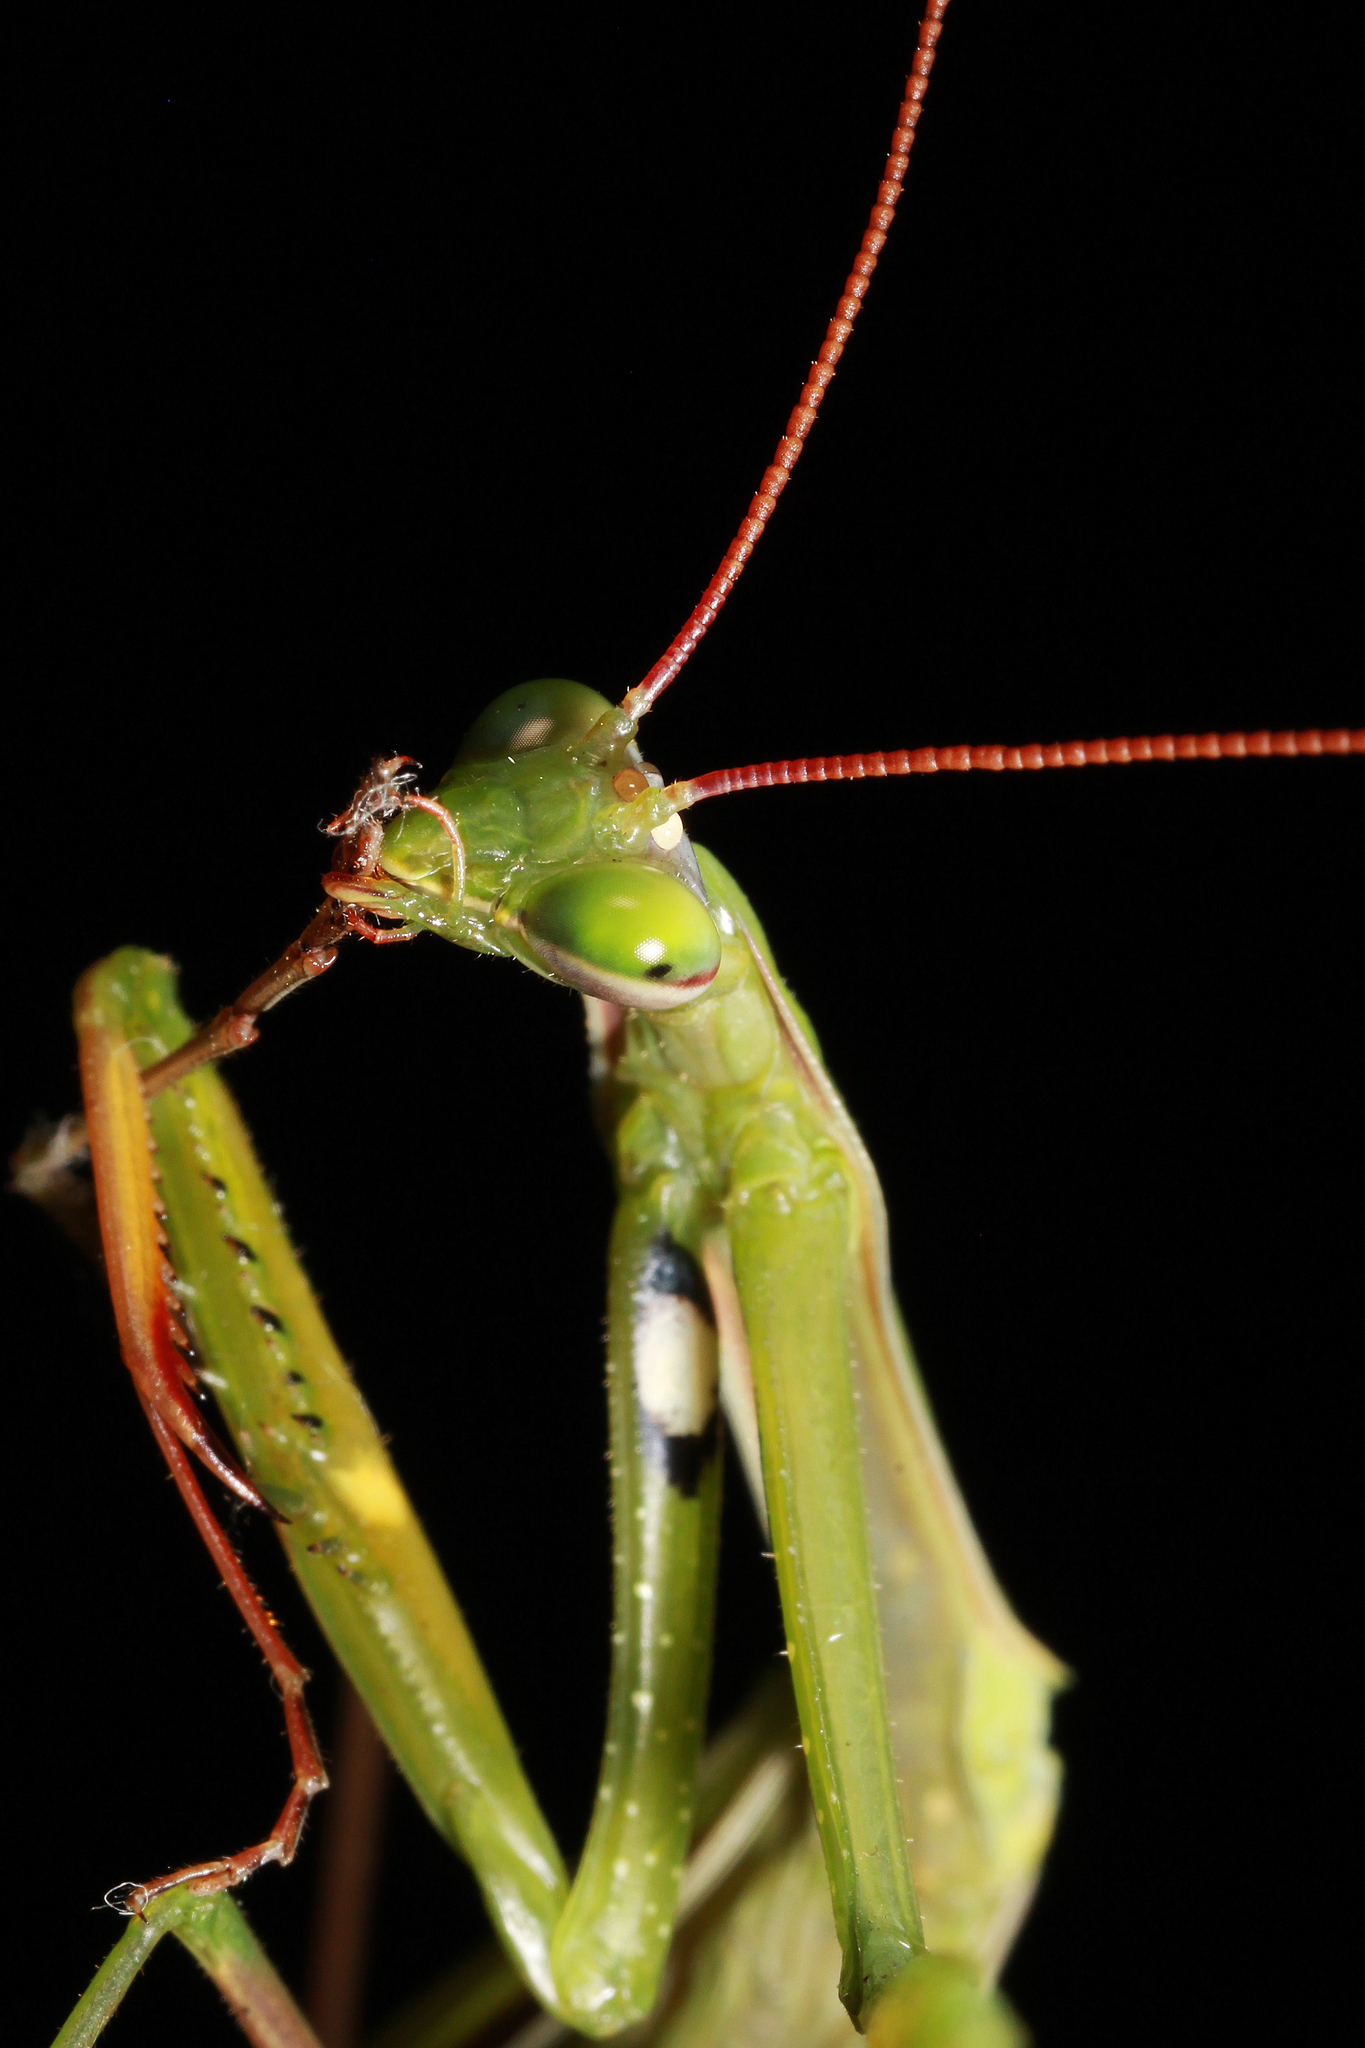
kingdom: Animalia
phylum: Arthropoda
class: Insecta
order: Mantodea
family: Mantidae
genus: Mantis
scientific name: Mantis religiosa
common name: Praying mantis
